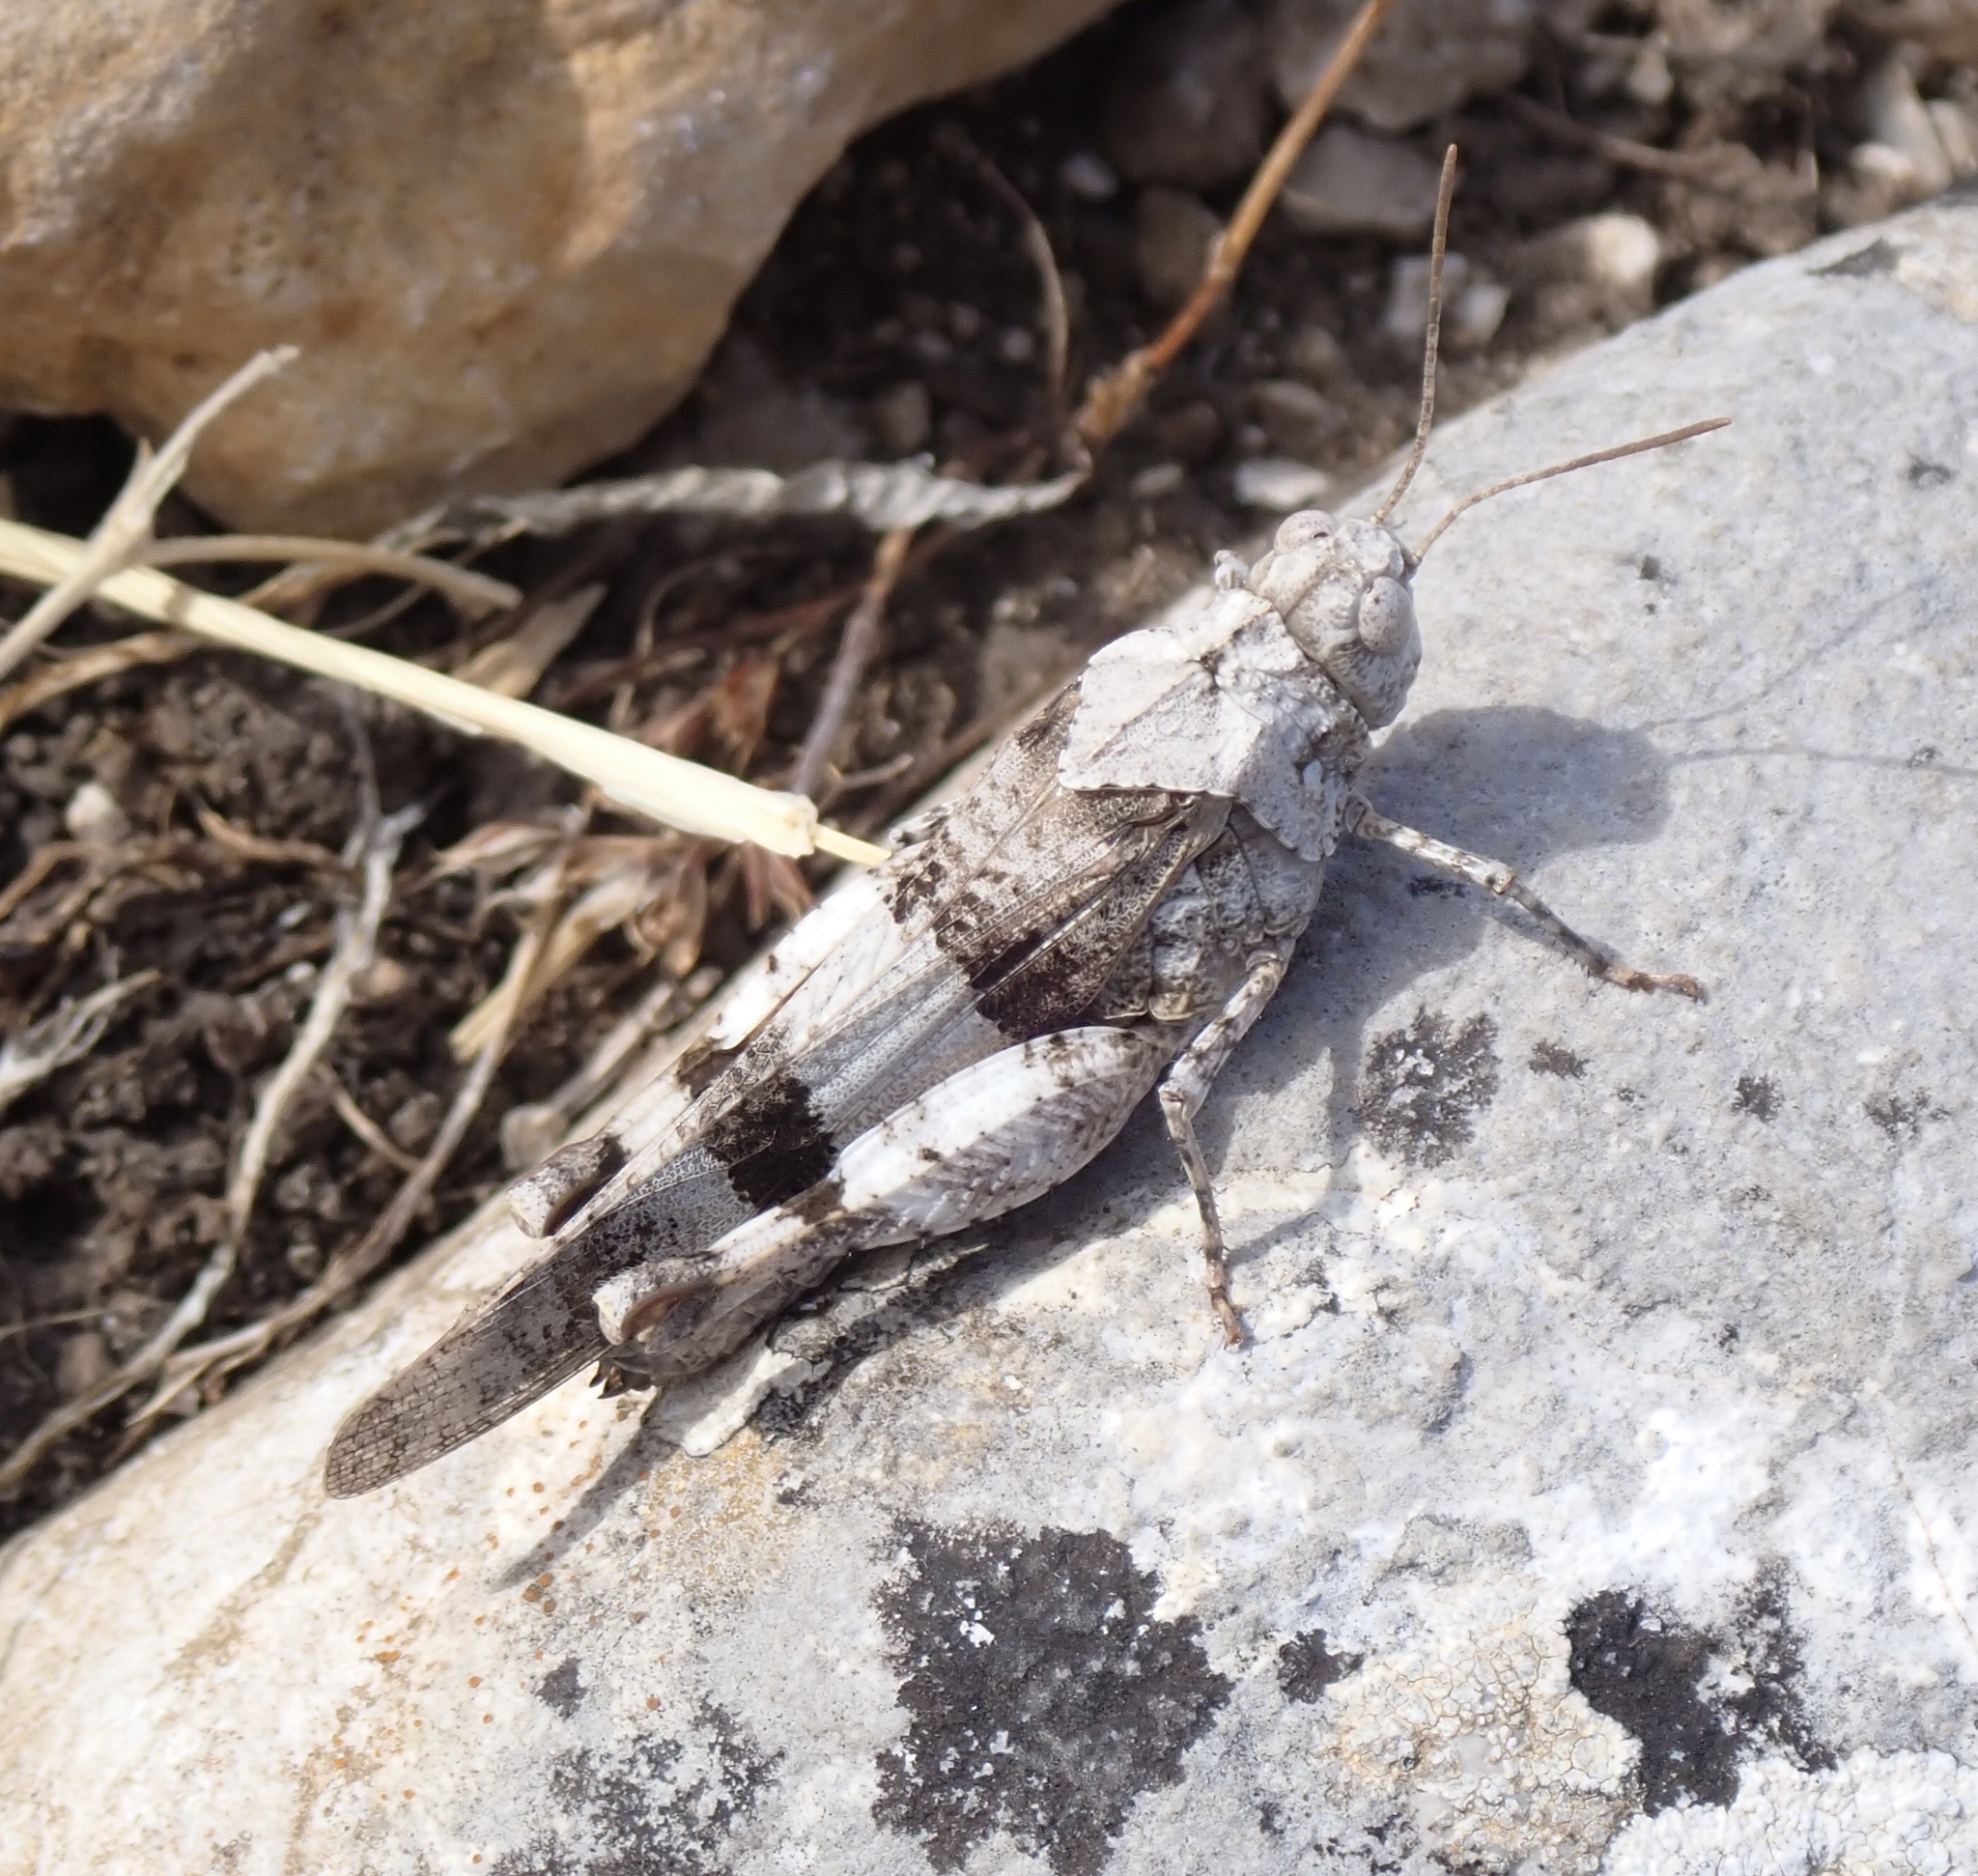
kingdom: Animalia
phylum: Arthropoda
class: Insecta
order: Orthoptera
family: Acrididae
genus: Oedipoda
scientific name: Oedipoda caerulescens
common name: Blue-winged grasshopper
